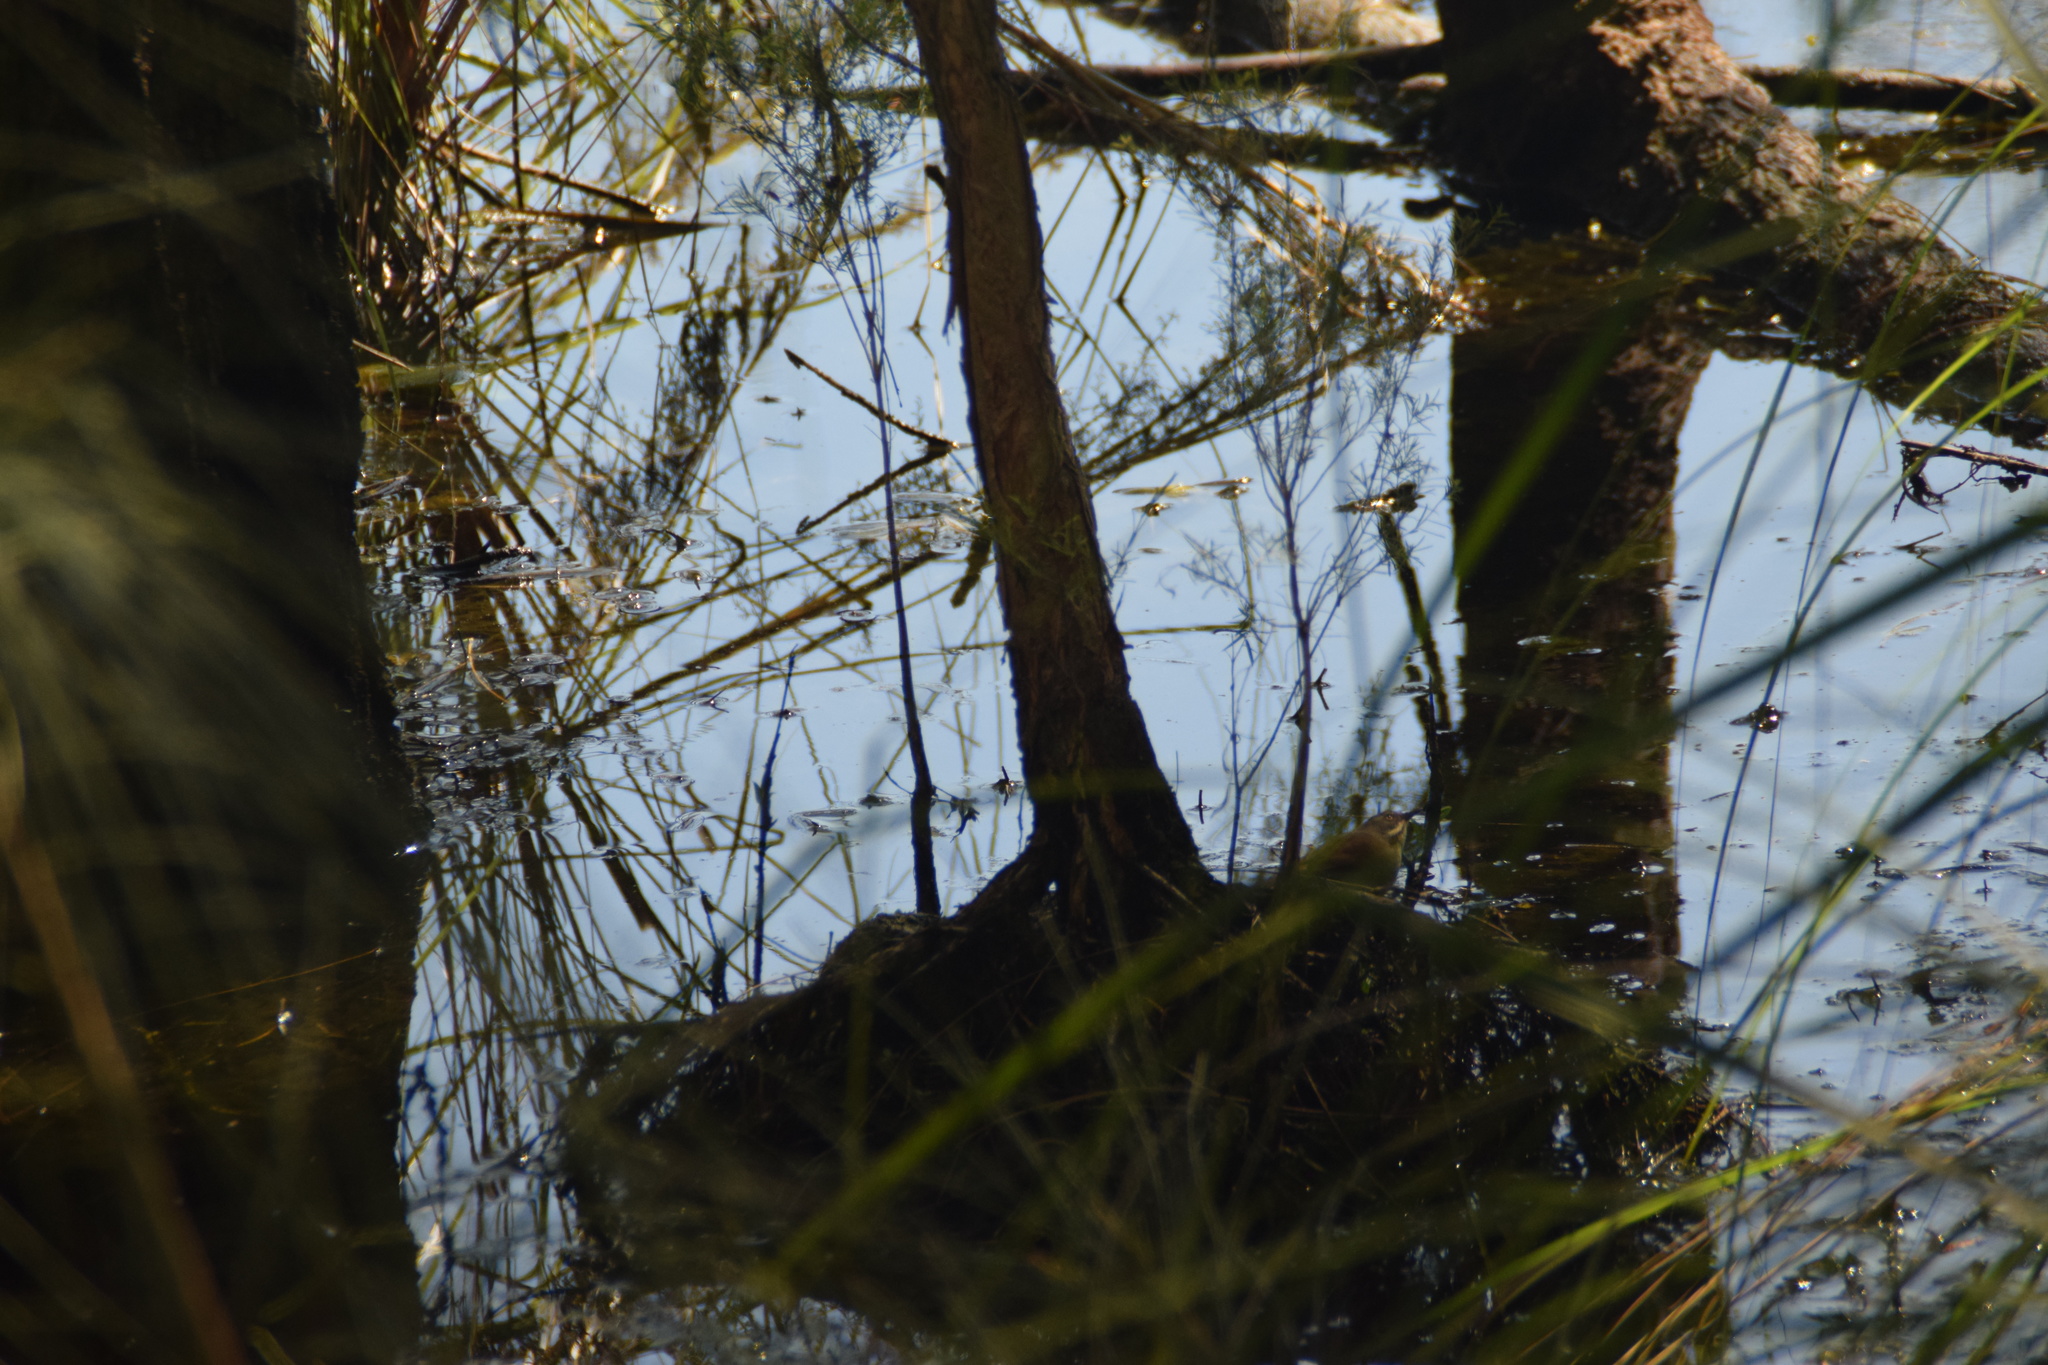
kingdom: Animalia
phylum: Chordata
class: Aves
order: Passeriformes
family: Acanthizidae
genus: Sericornis
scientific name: Sericornis frontalis
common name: White-browed scrubwren
